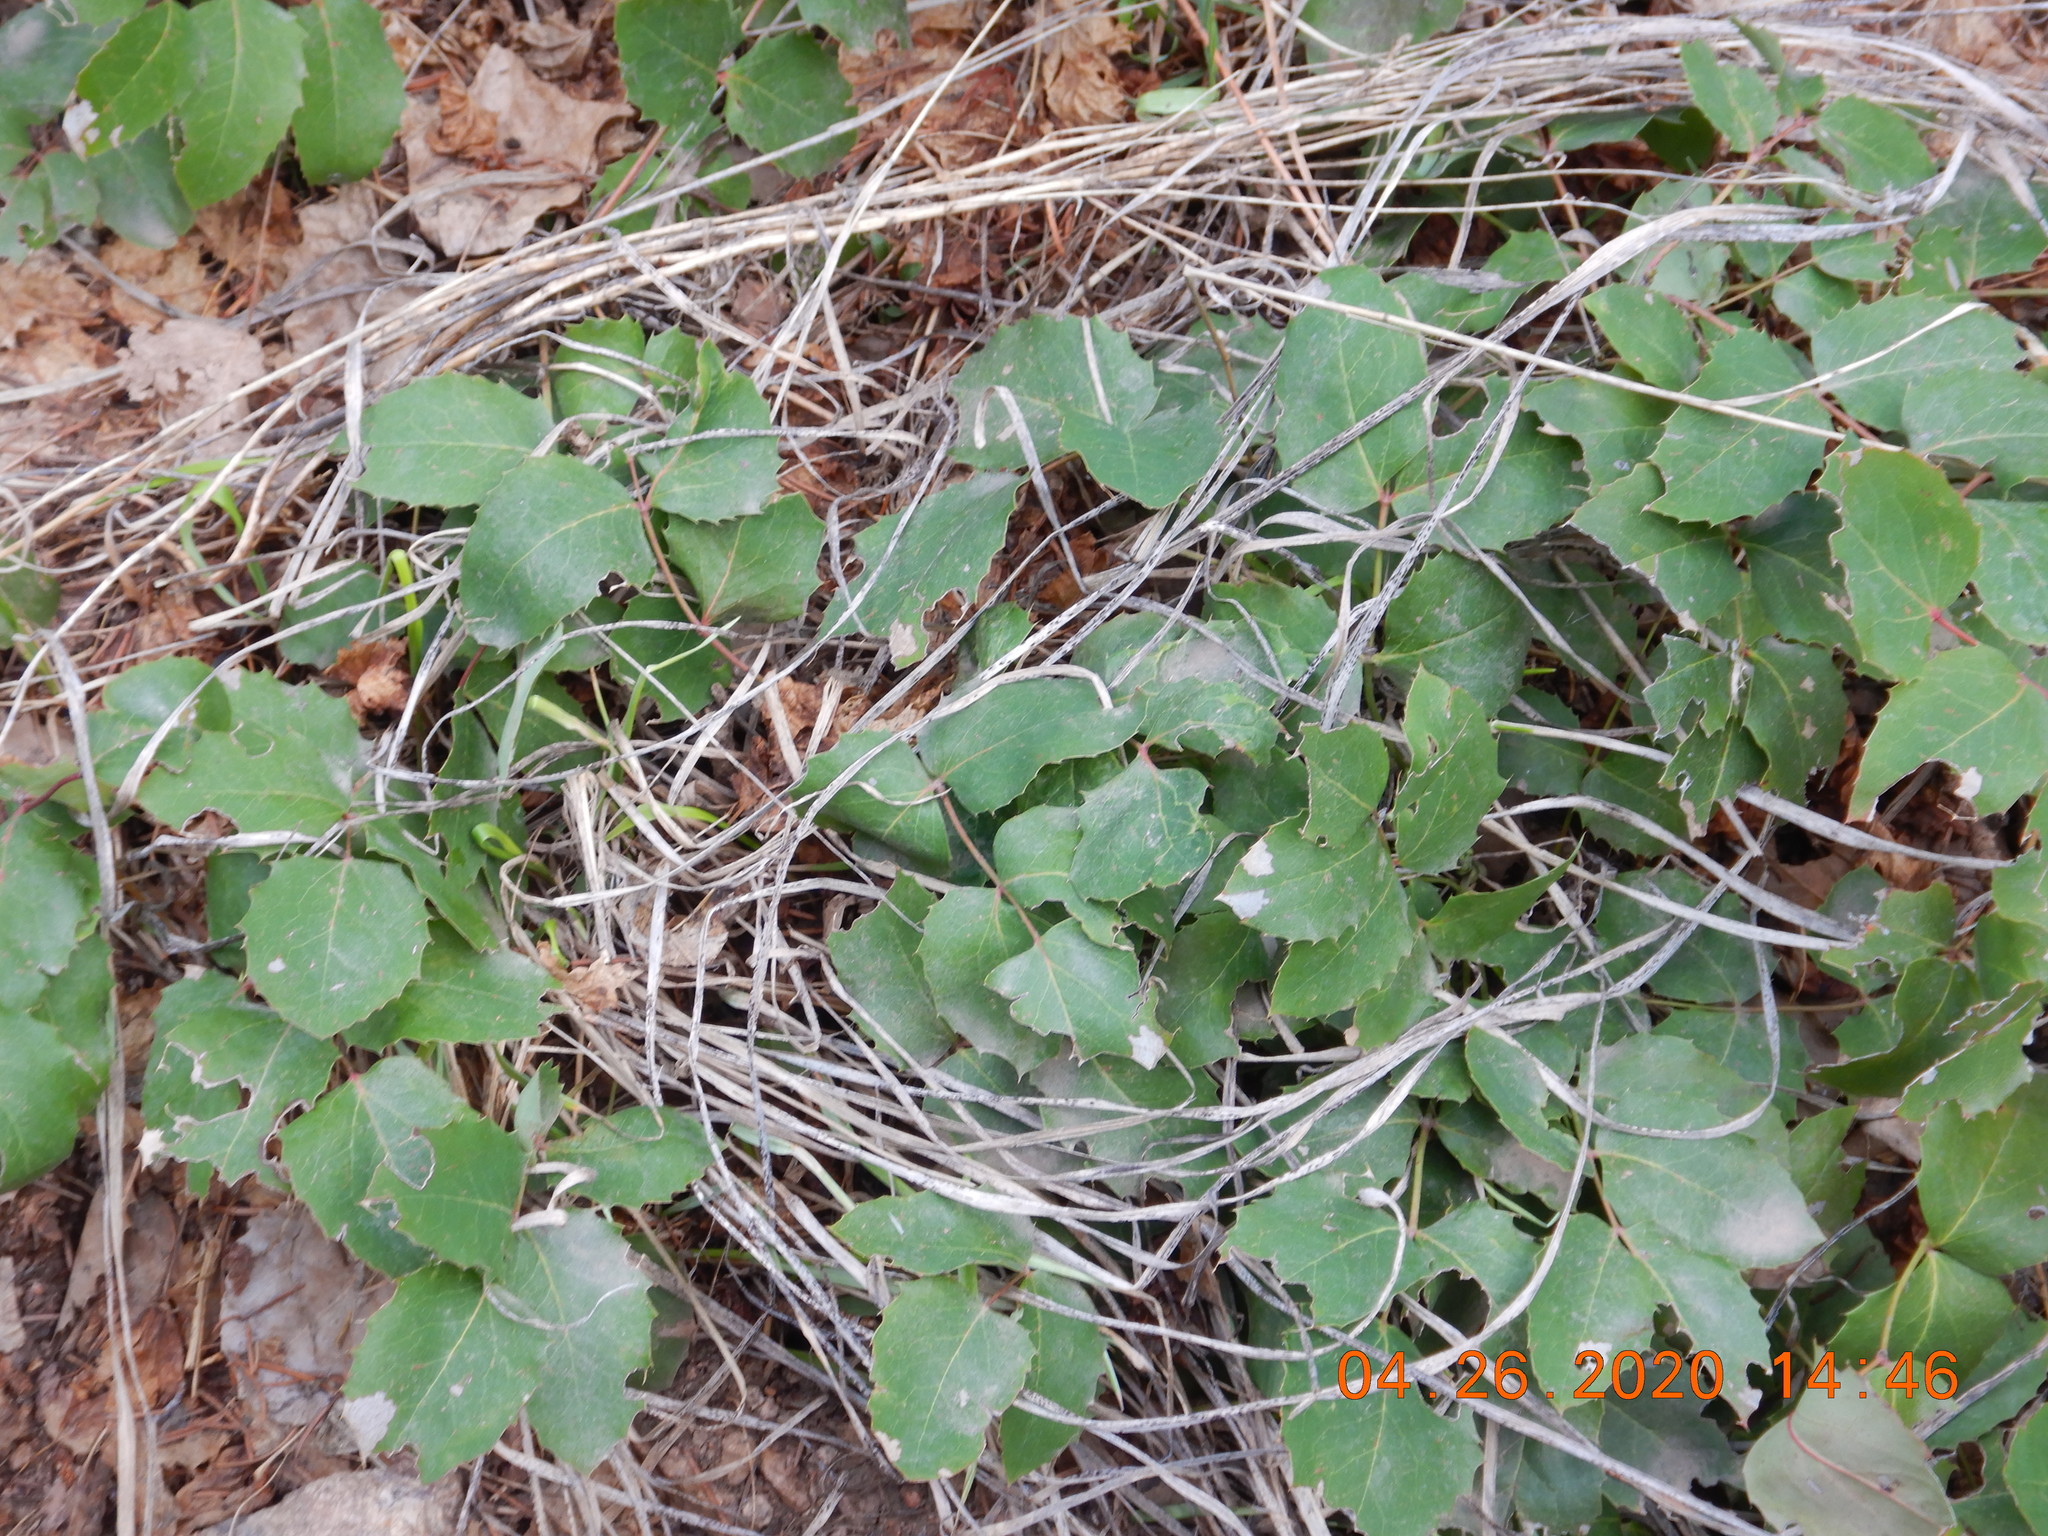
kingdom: Plantae
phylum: Tracheophyta
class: Magnoliopsida
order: Ranunculales
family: Berberidaceae
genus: Mahonia
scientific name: Mahonia repens
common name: Creeping oregon-grape
